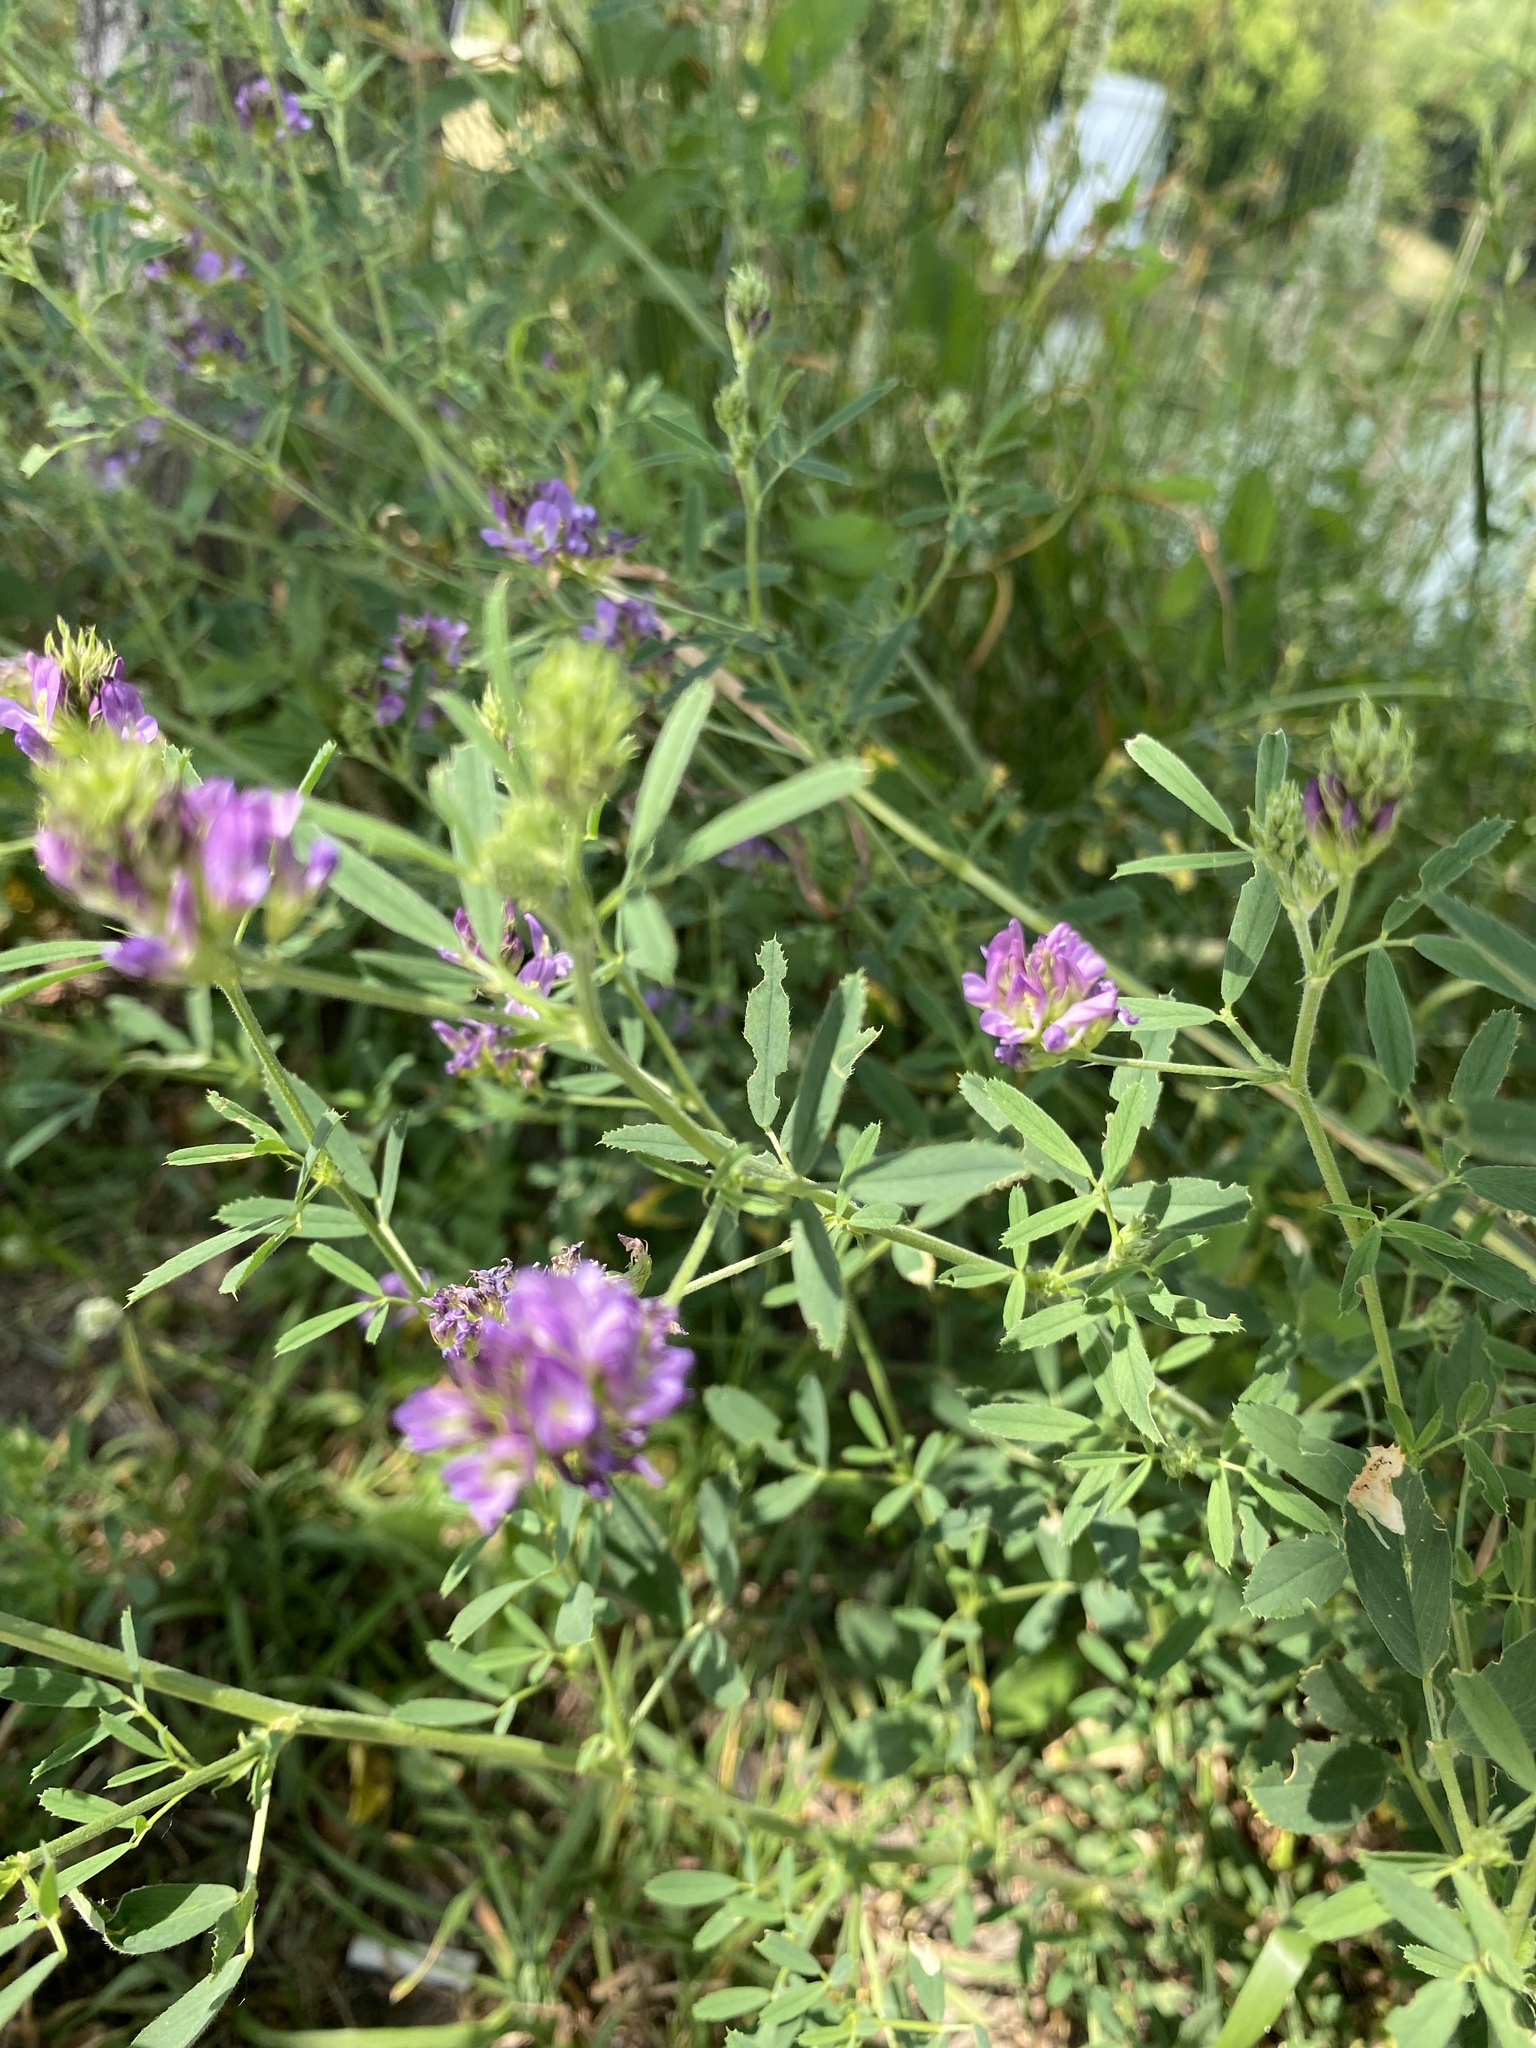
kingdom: Plantae
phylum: Tracheophyta
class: Magnoliopsida
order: Fabales
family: Fabaceae
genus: Medicago
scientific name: Medicago sativa
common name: Alfalfa
